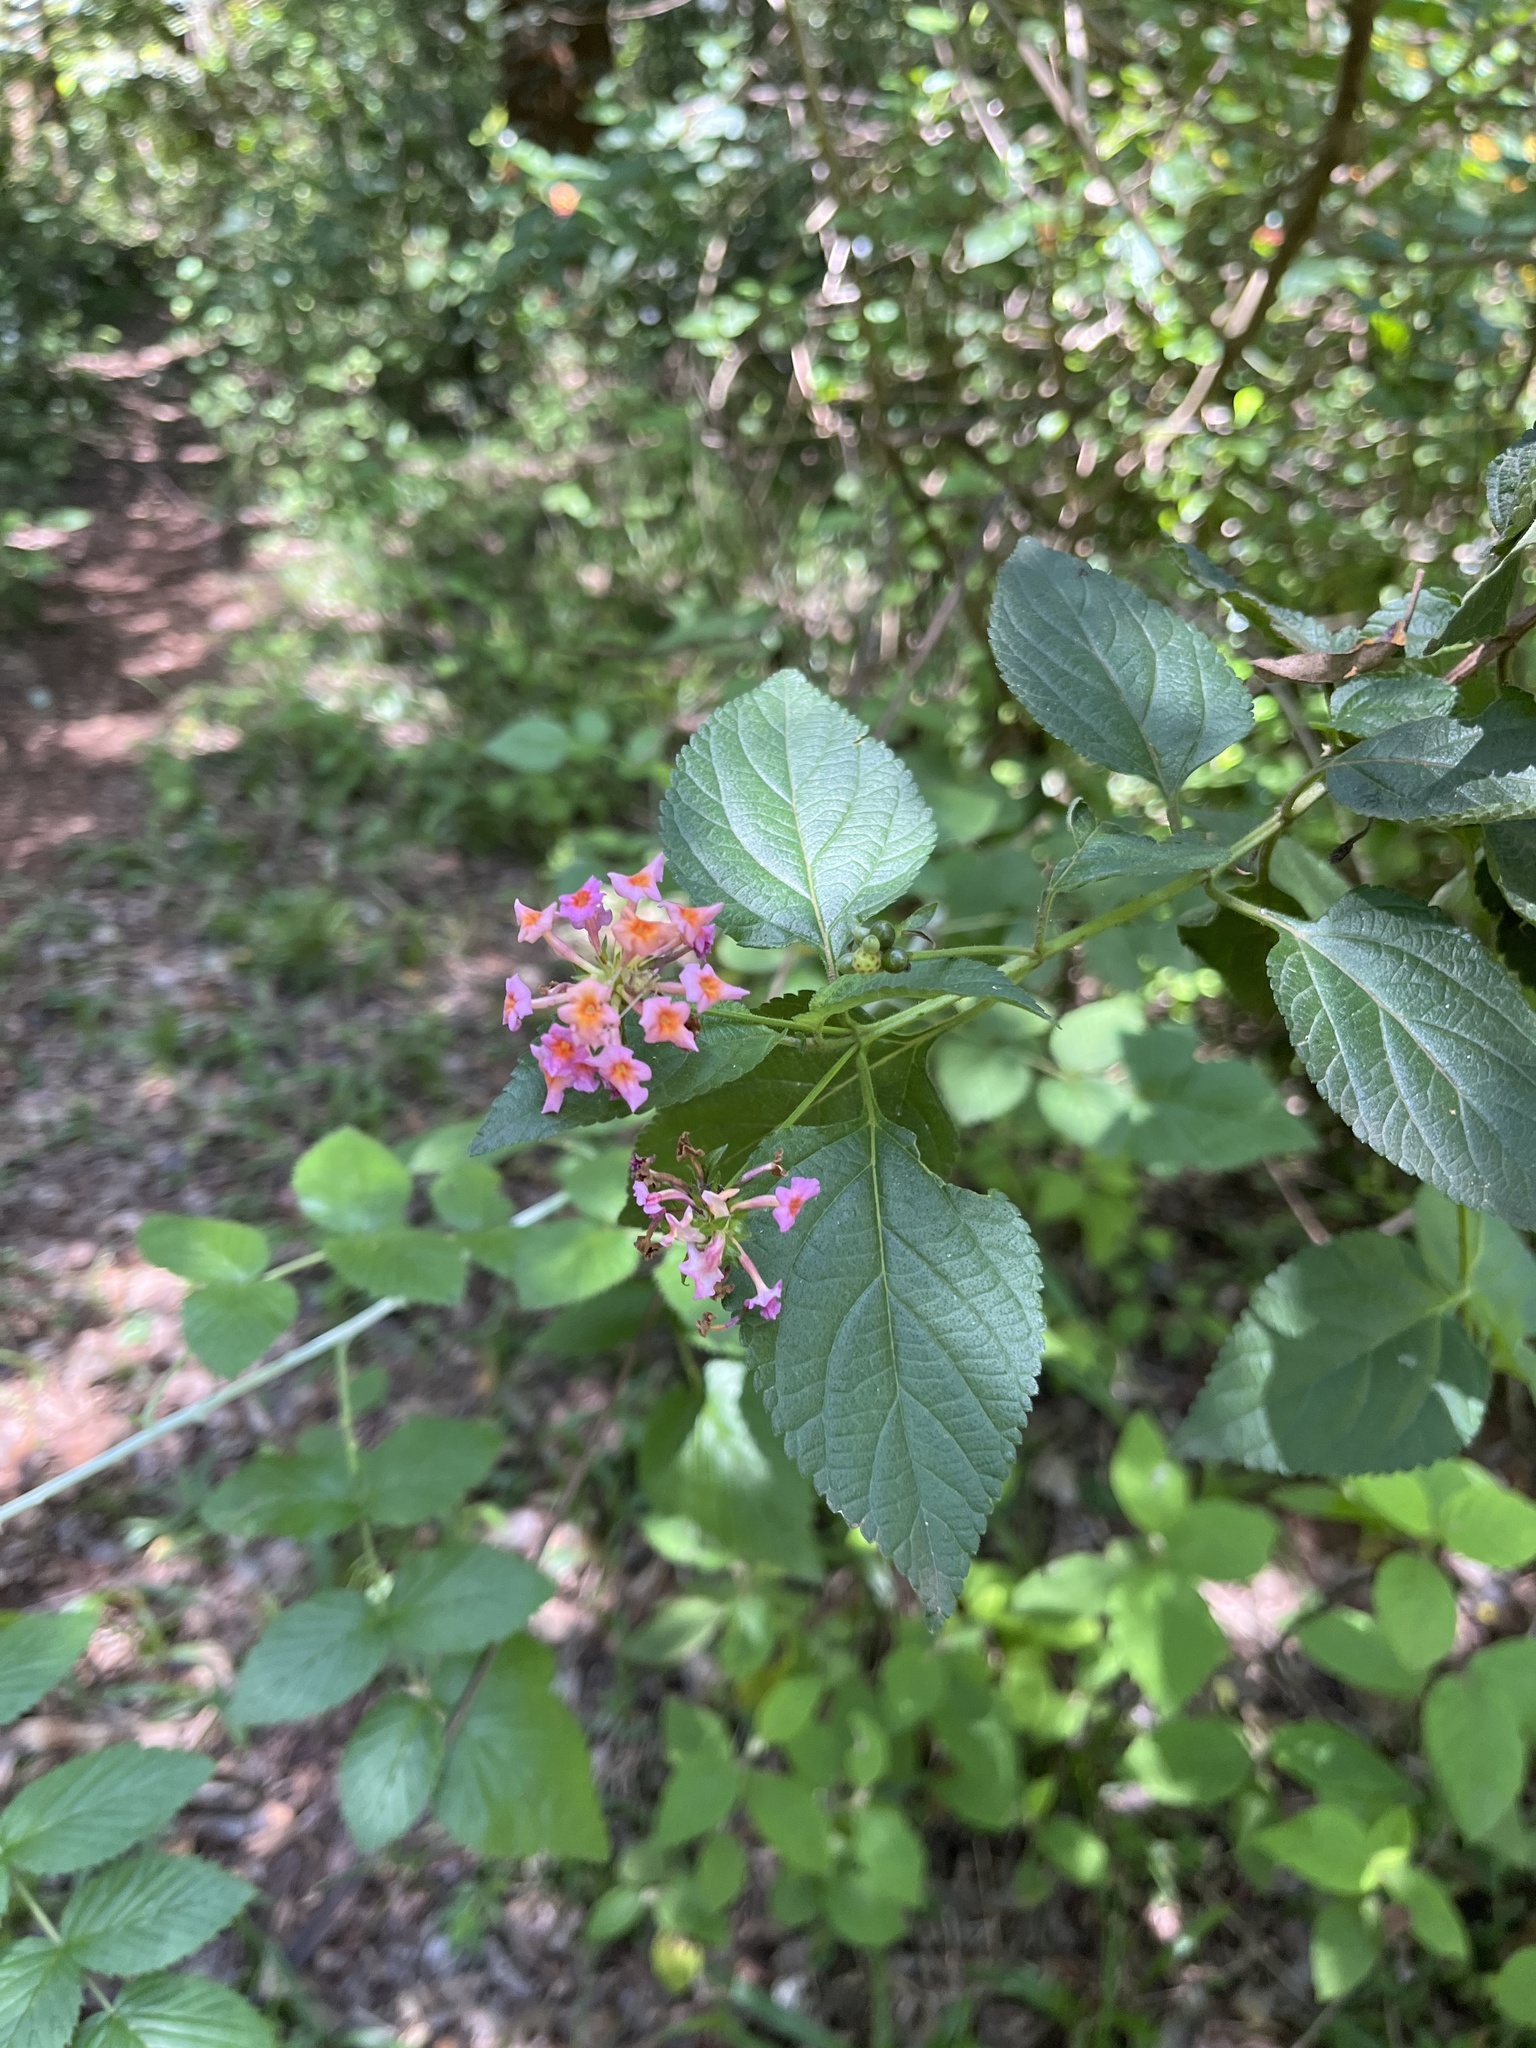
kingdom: Plantae
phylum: Tracheophyta
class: Magnoliopsida
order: Lamiales
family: Verbenaceae
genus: Lantana
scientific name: Lantana camara
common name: Lantana
